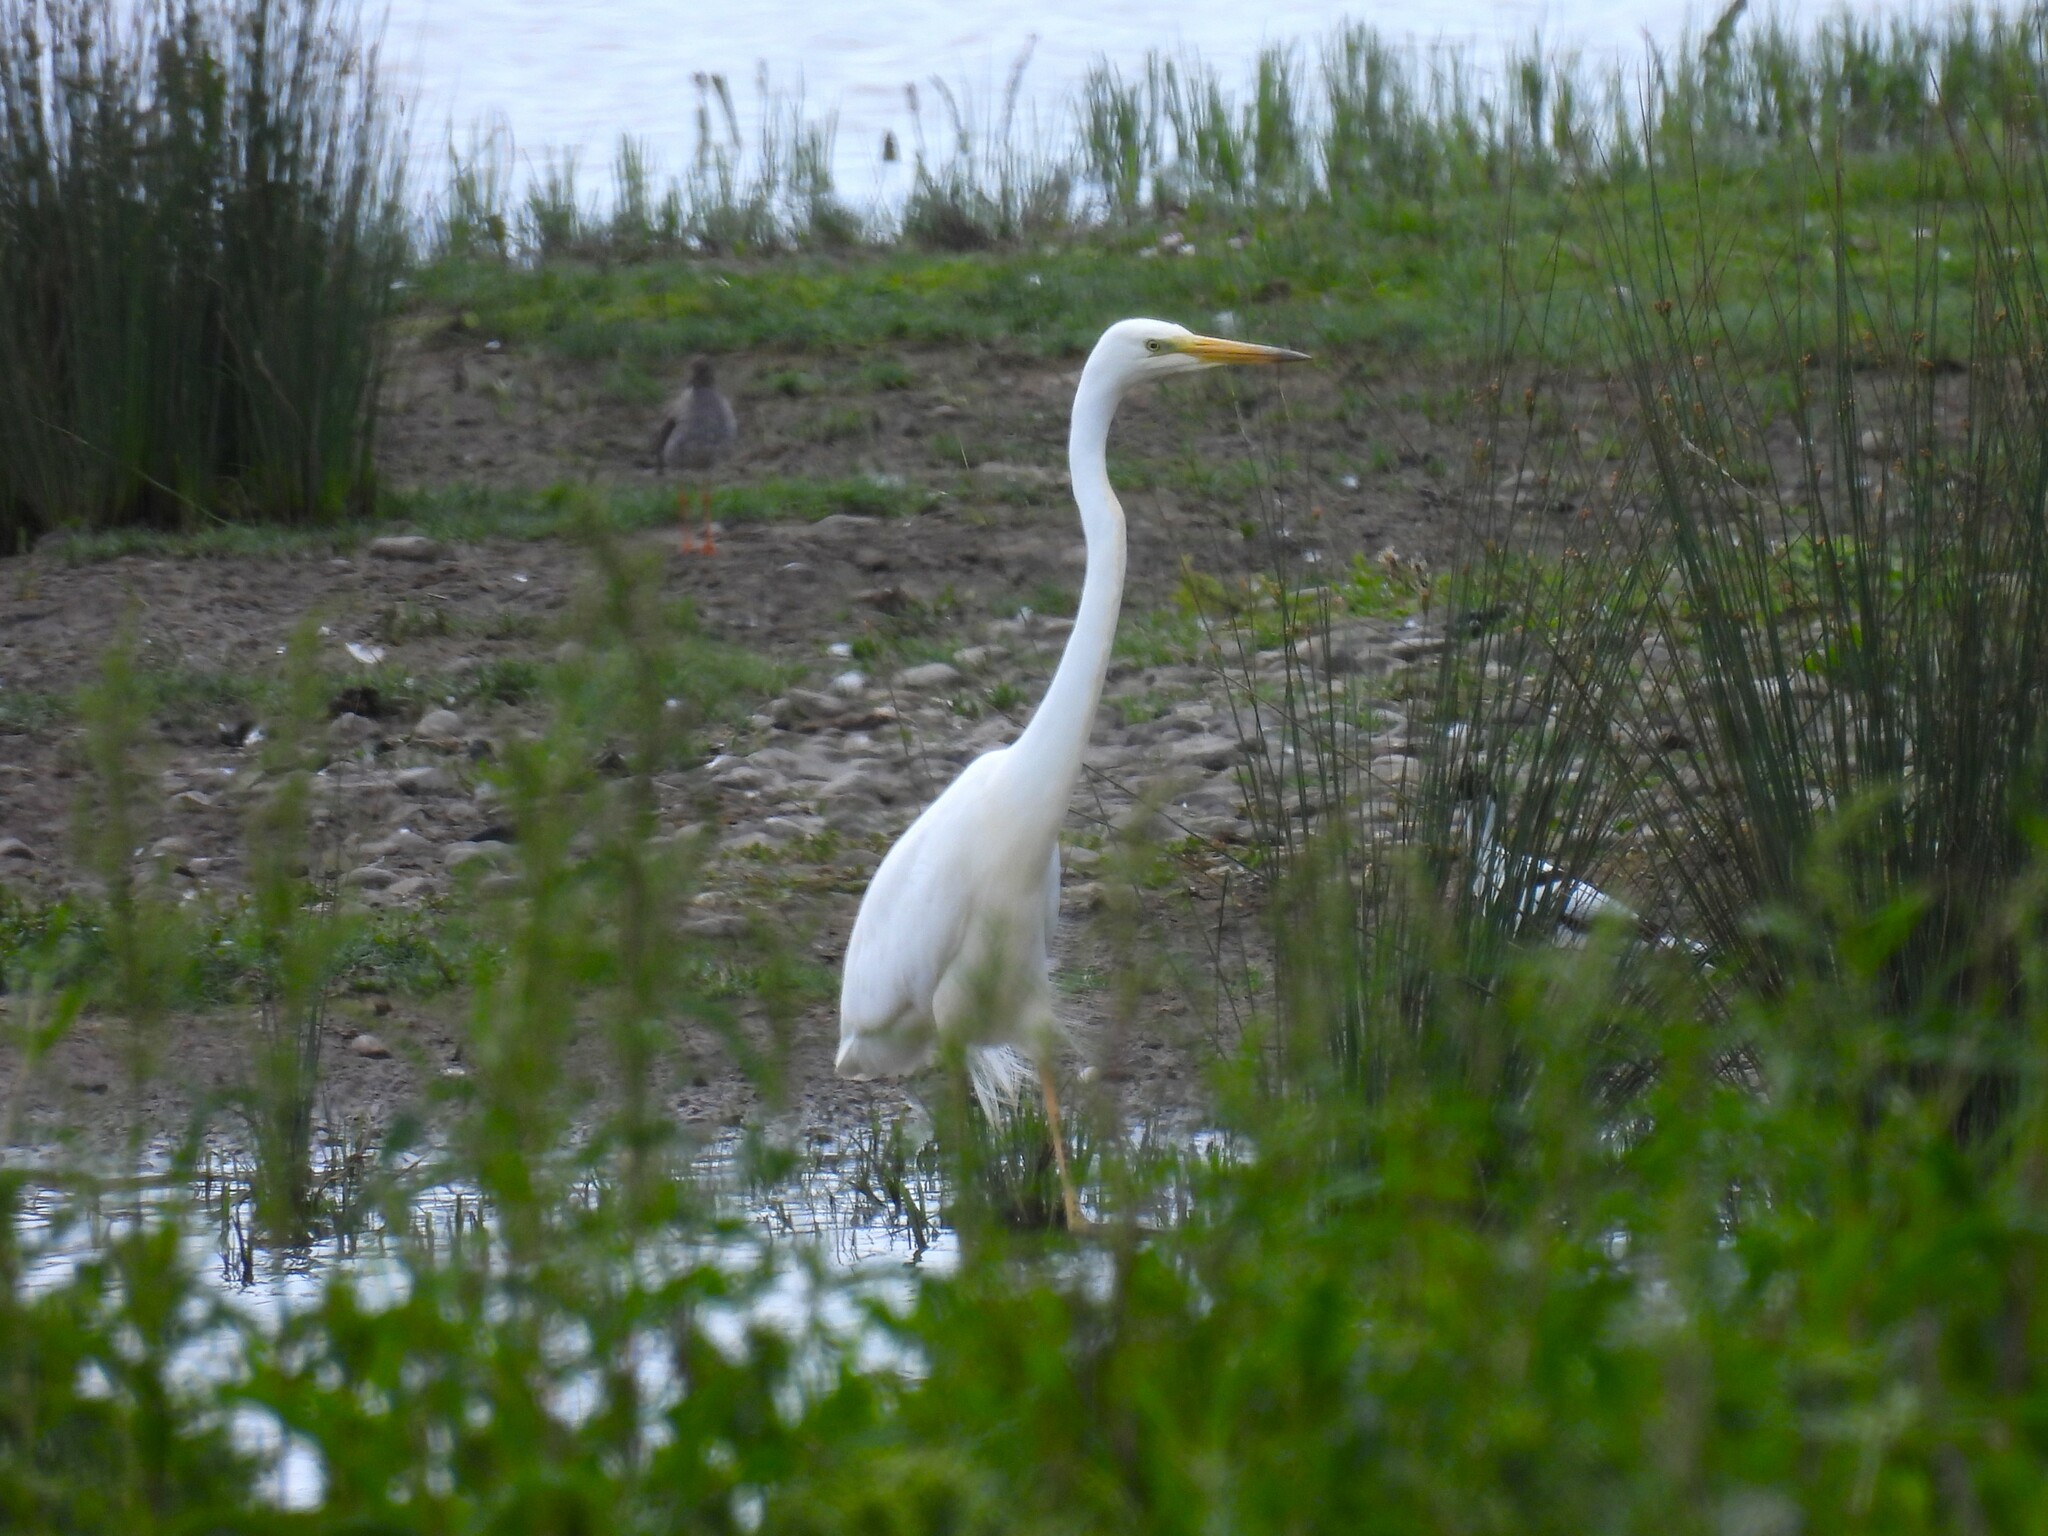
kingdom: Animalia
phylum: Chordata
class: Aves
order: Pelecaniformes
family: Ardeidae
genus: Ardea
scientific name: Ardea alba
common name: Great egret
